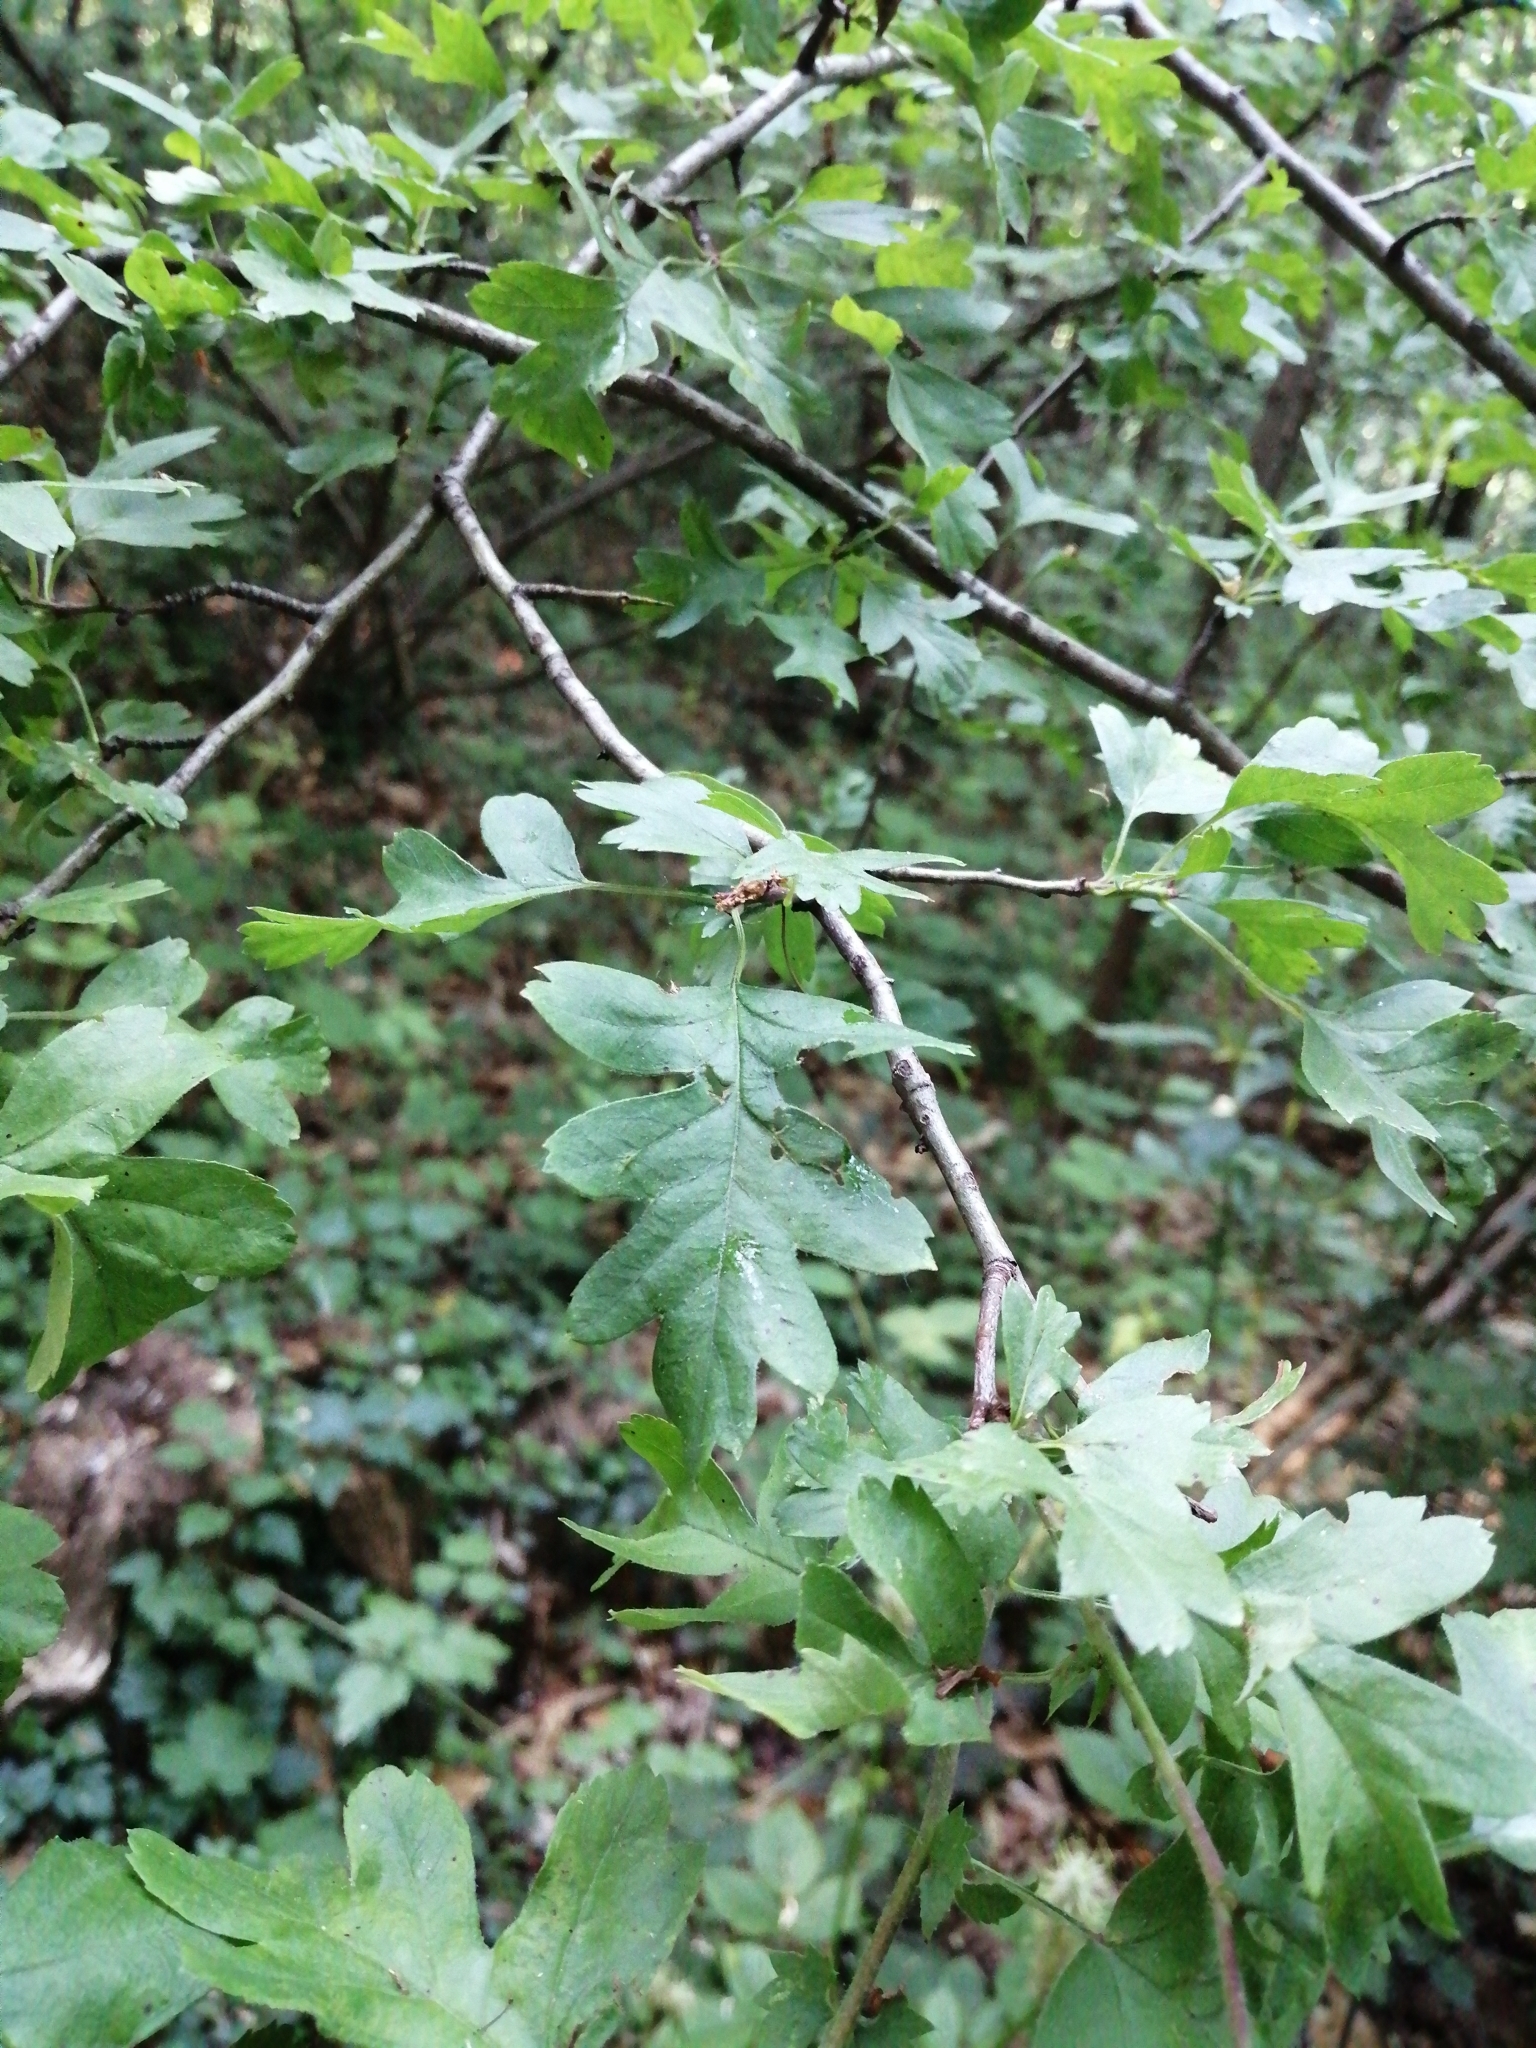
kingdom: Plantae
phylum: Tracheophyta
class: Magnoliopsida
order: Rosales
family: Rosaceae
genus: Crataegus
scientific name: Crataegus monogyna
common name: Hawthorn
